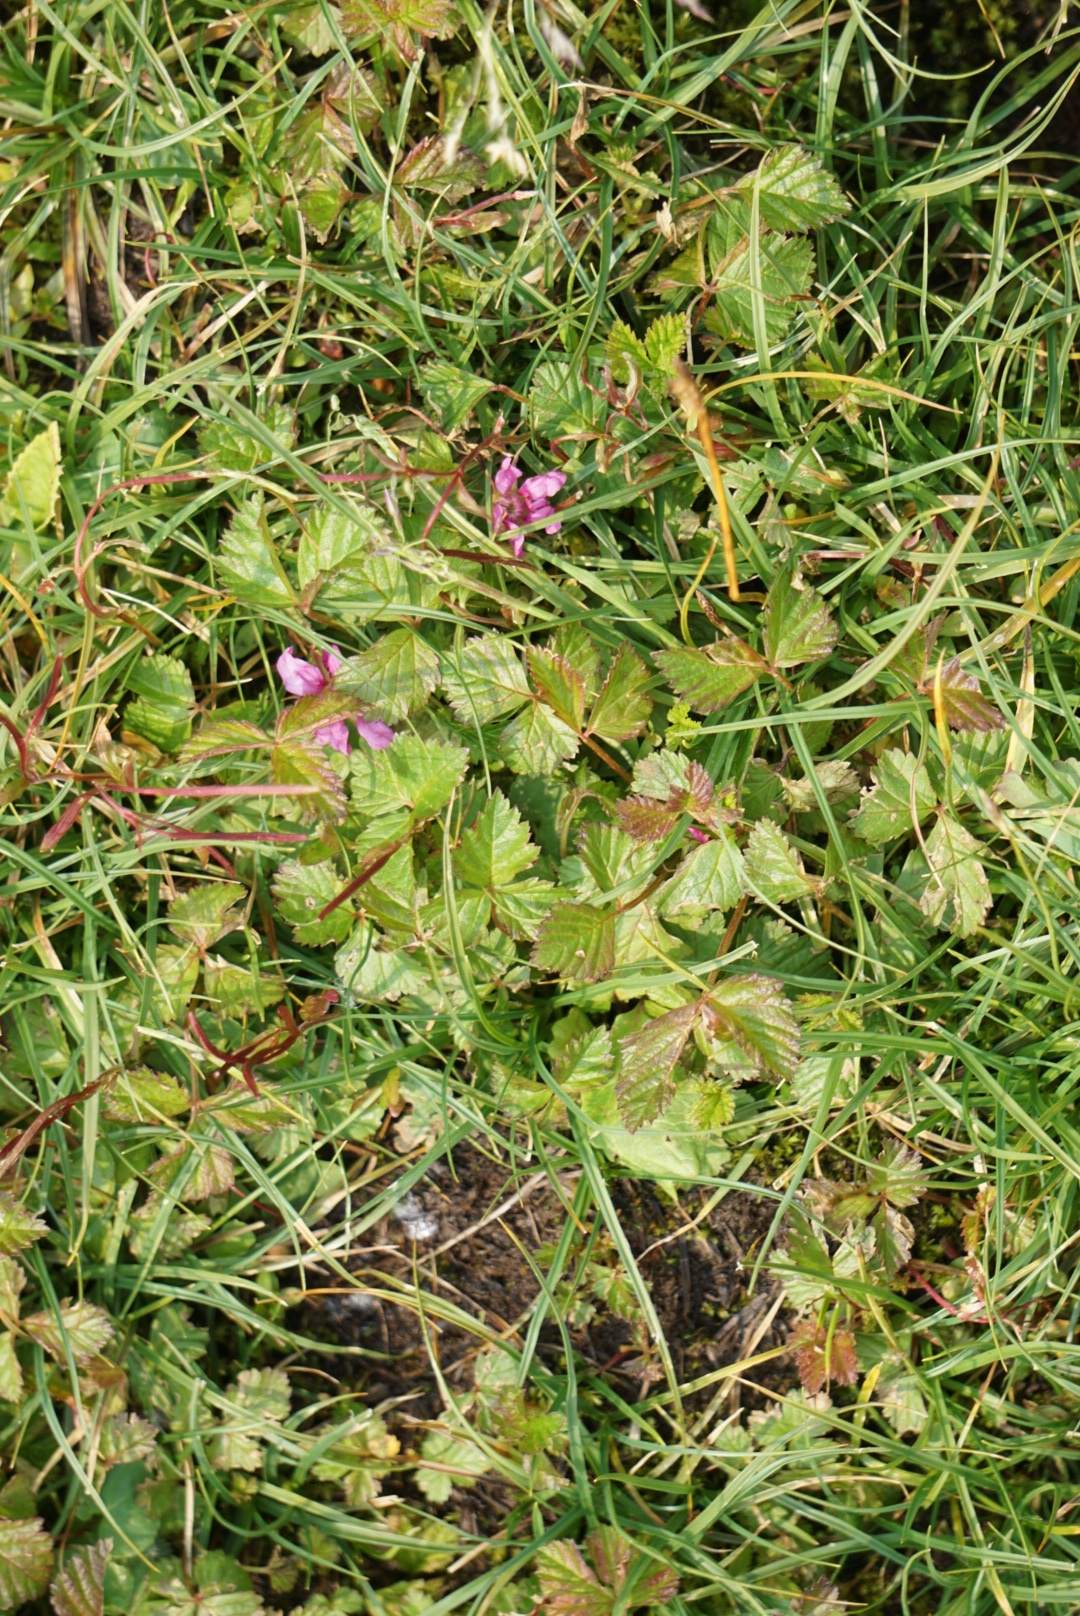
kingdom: Plantae
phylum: Tracheophyta
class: Magnoliopsida
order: Rosales
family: Rosaceae
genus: Rubus
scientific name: Rubus arcticus
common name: Arctic bramble
